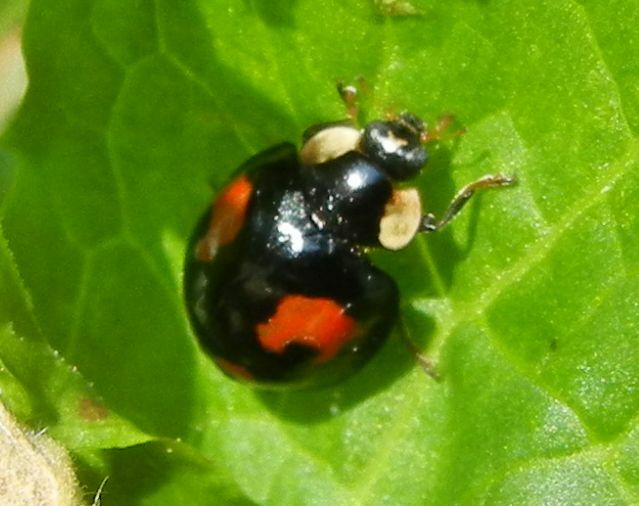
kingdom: Animalia
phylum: Arthropoda
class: Insecta
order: Coleoptera
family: Coccinellidae
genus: Harmonia
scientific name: Harmonia axyridis
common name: Harlequin ladybird
